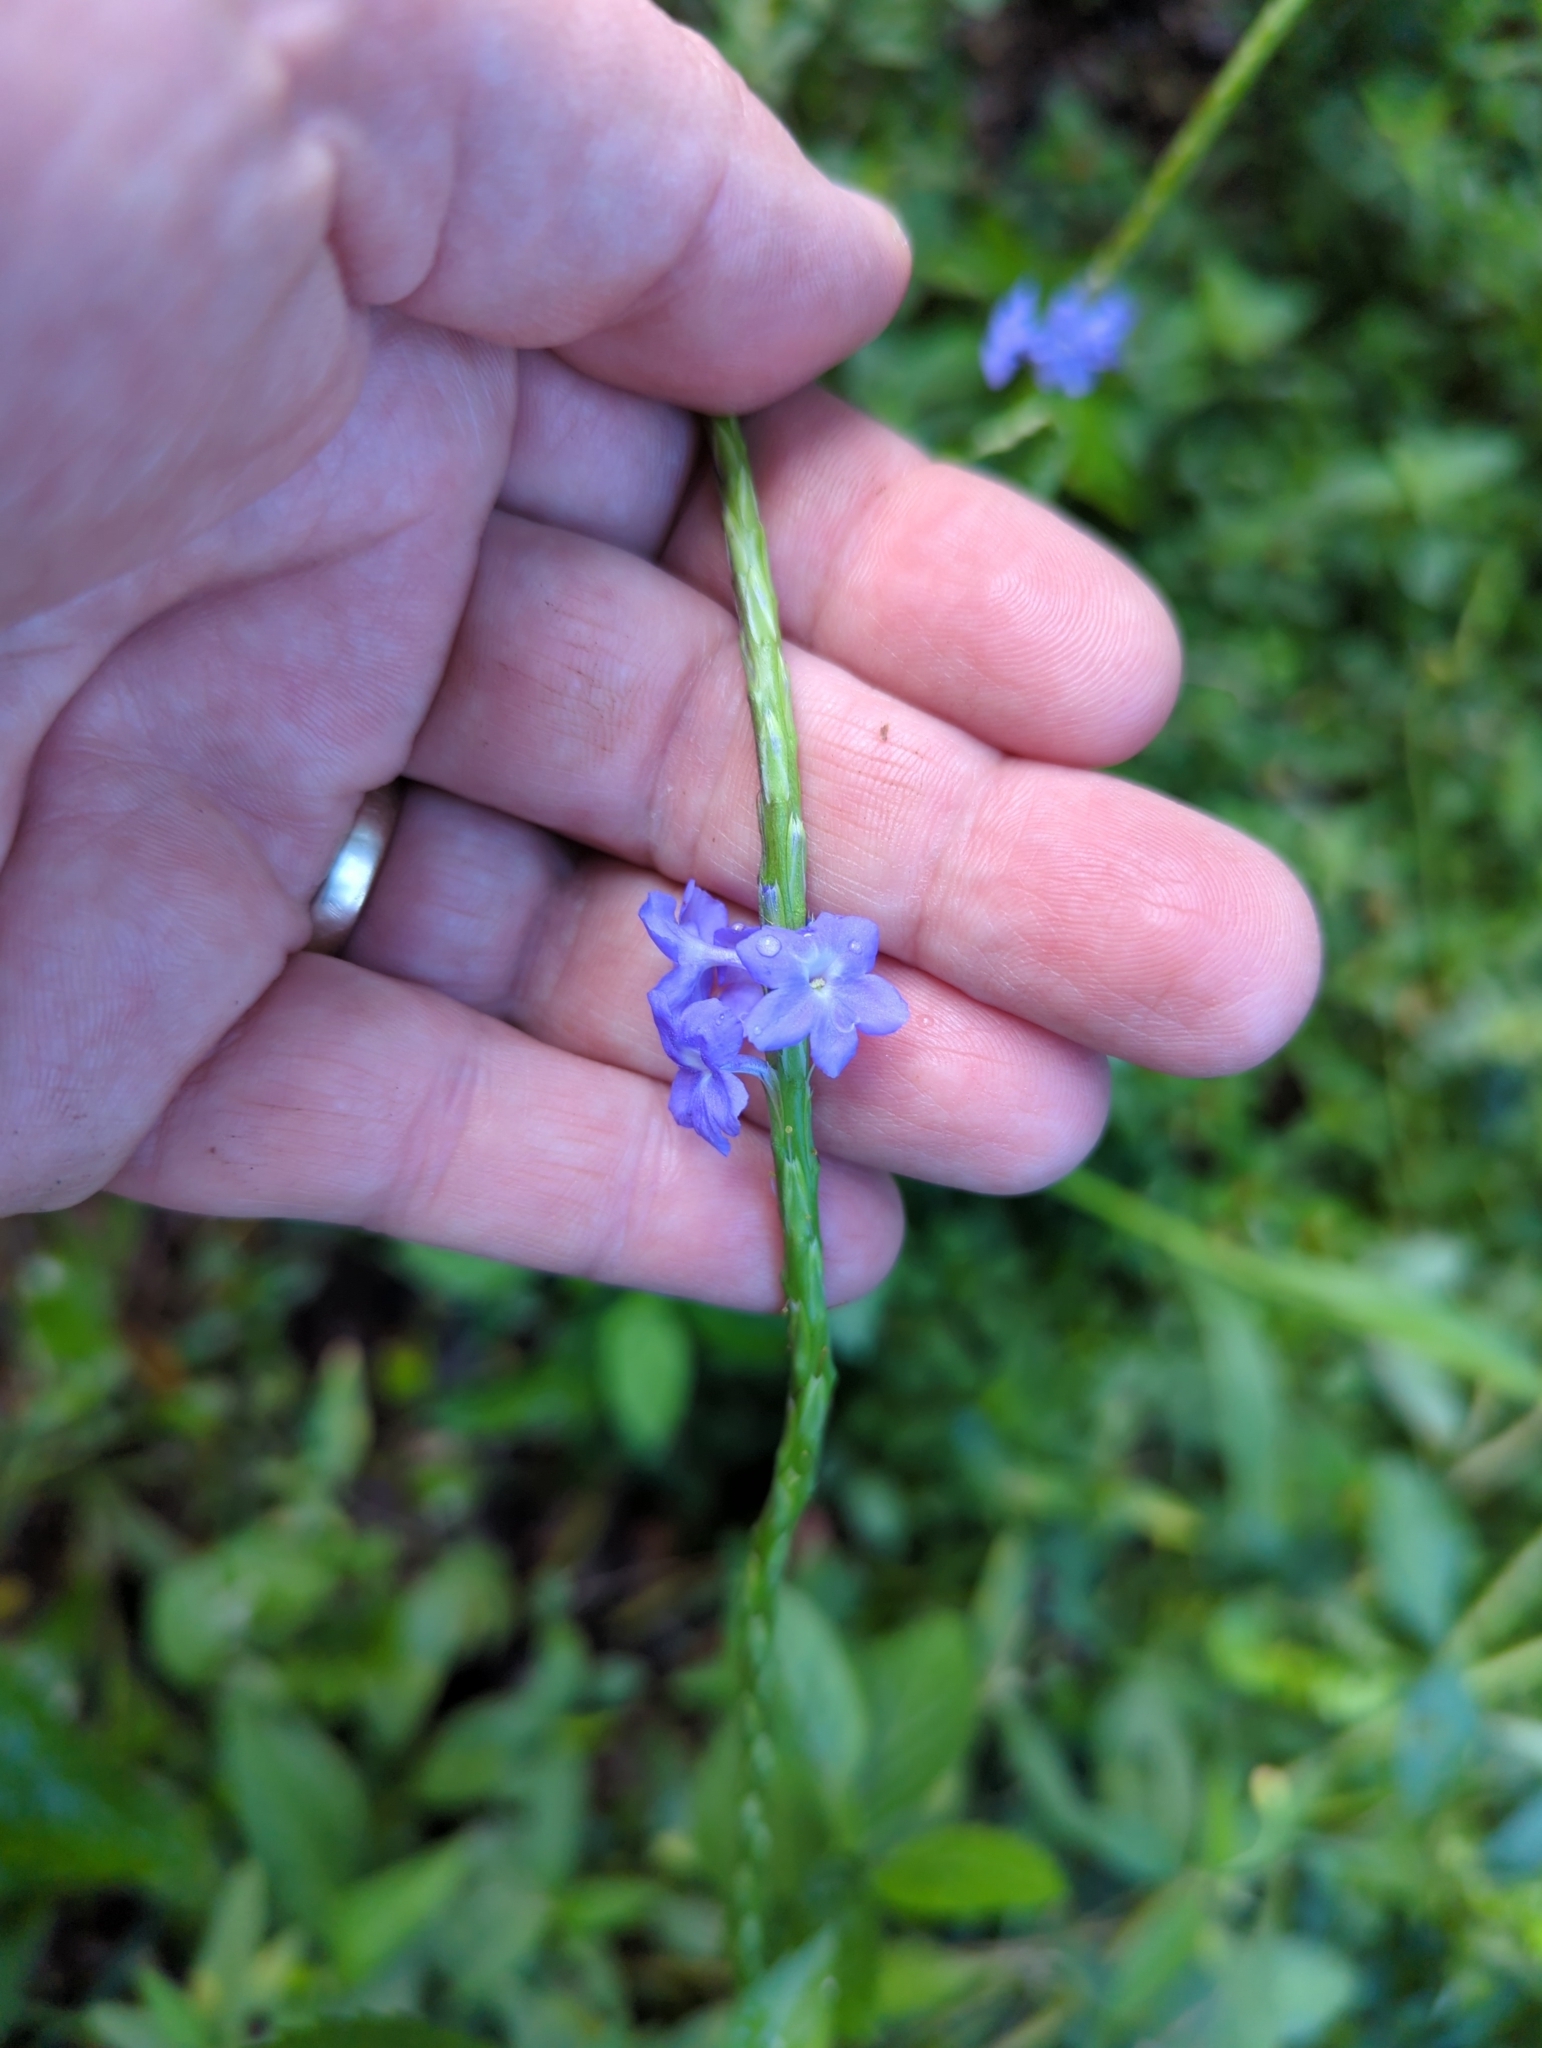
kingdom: Plantae
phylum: Tracheophyta
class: Magnoliopsida
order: Lamiales
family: Verbenaceae
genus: Stachytarpheta
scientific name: Stachytarpheta jamaicensis
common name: Light-blue snakeweed
